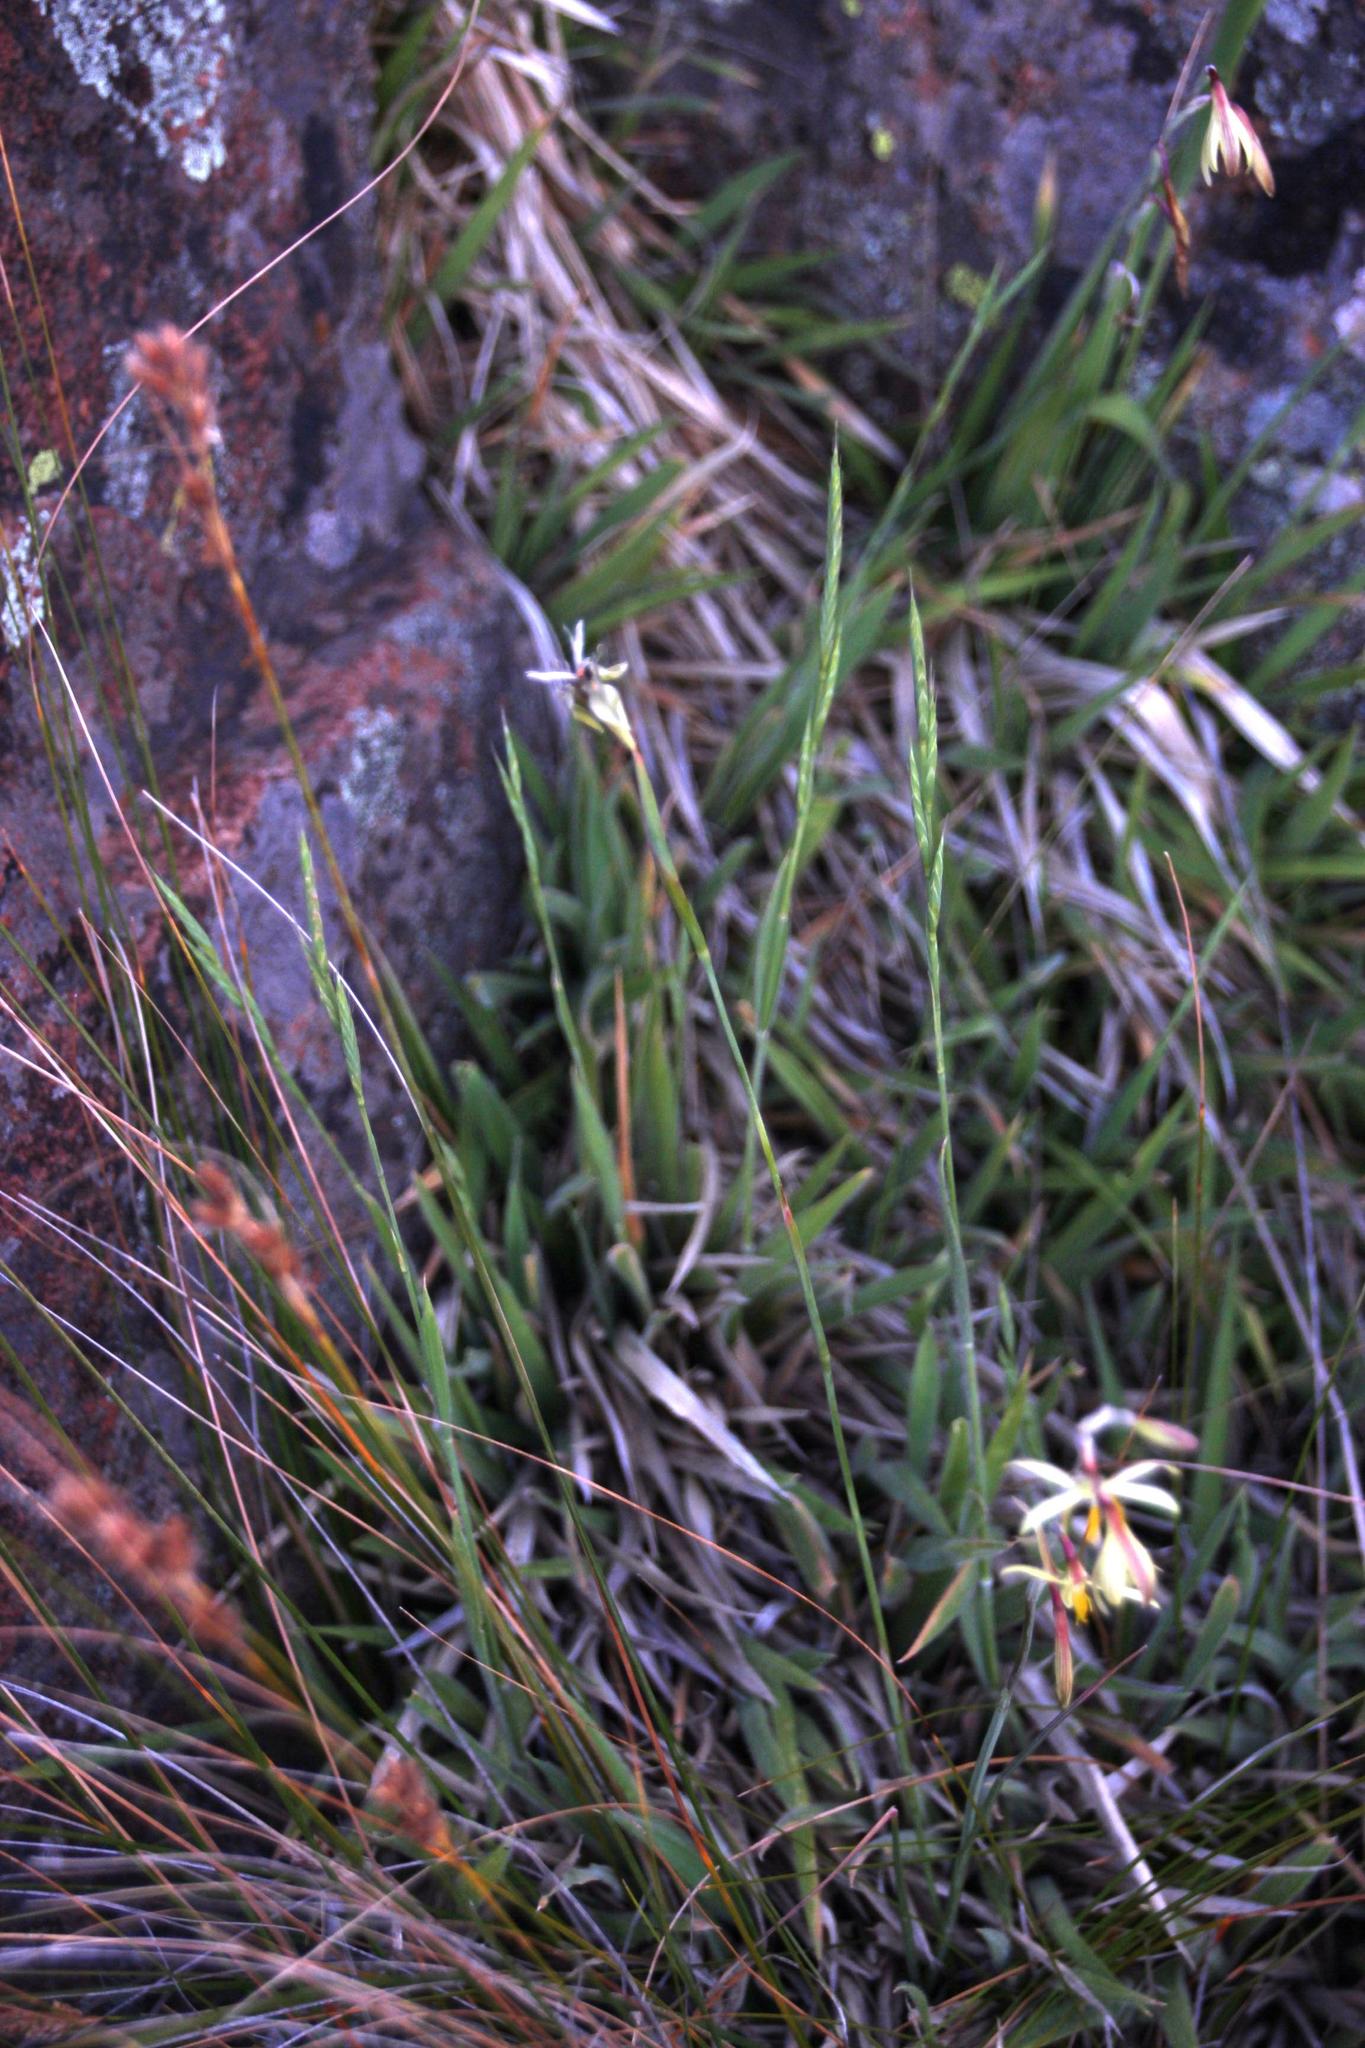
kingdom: Plantae
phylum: Tracheophyta
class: Liliopsida
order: Asparagales
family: Iridaceae
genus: Hesperantha
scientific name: Hesperantha radiata
